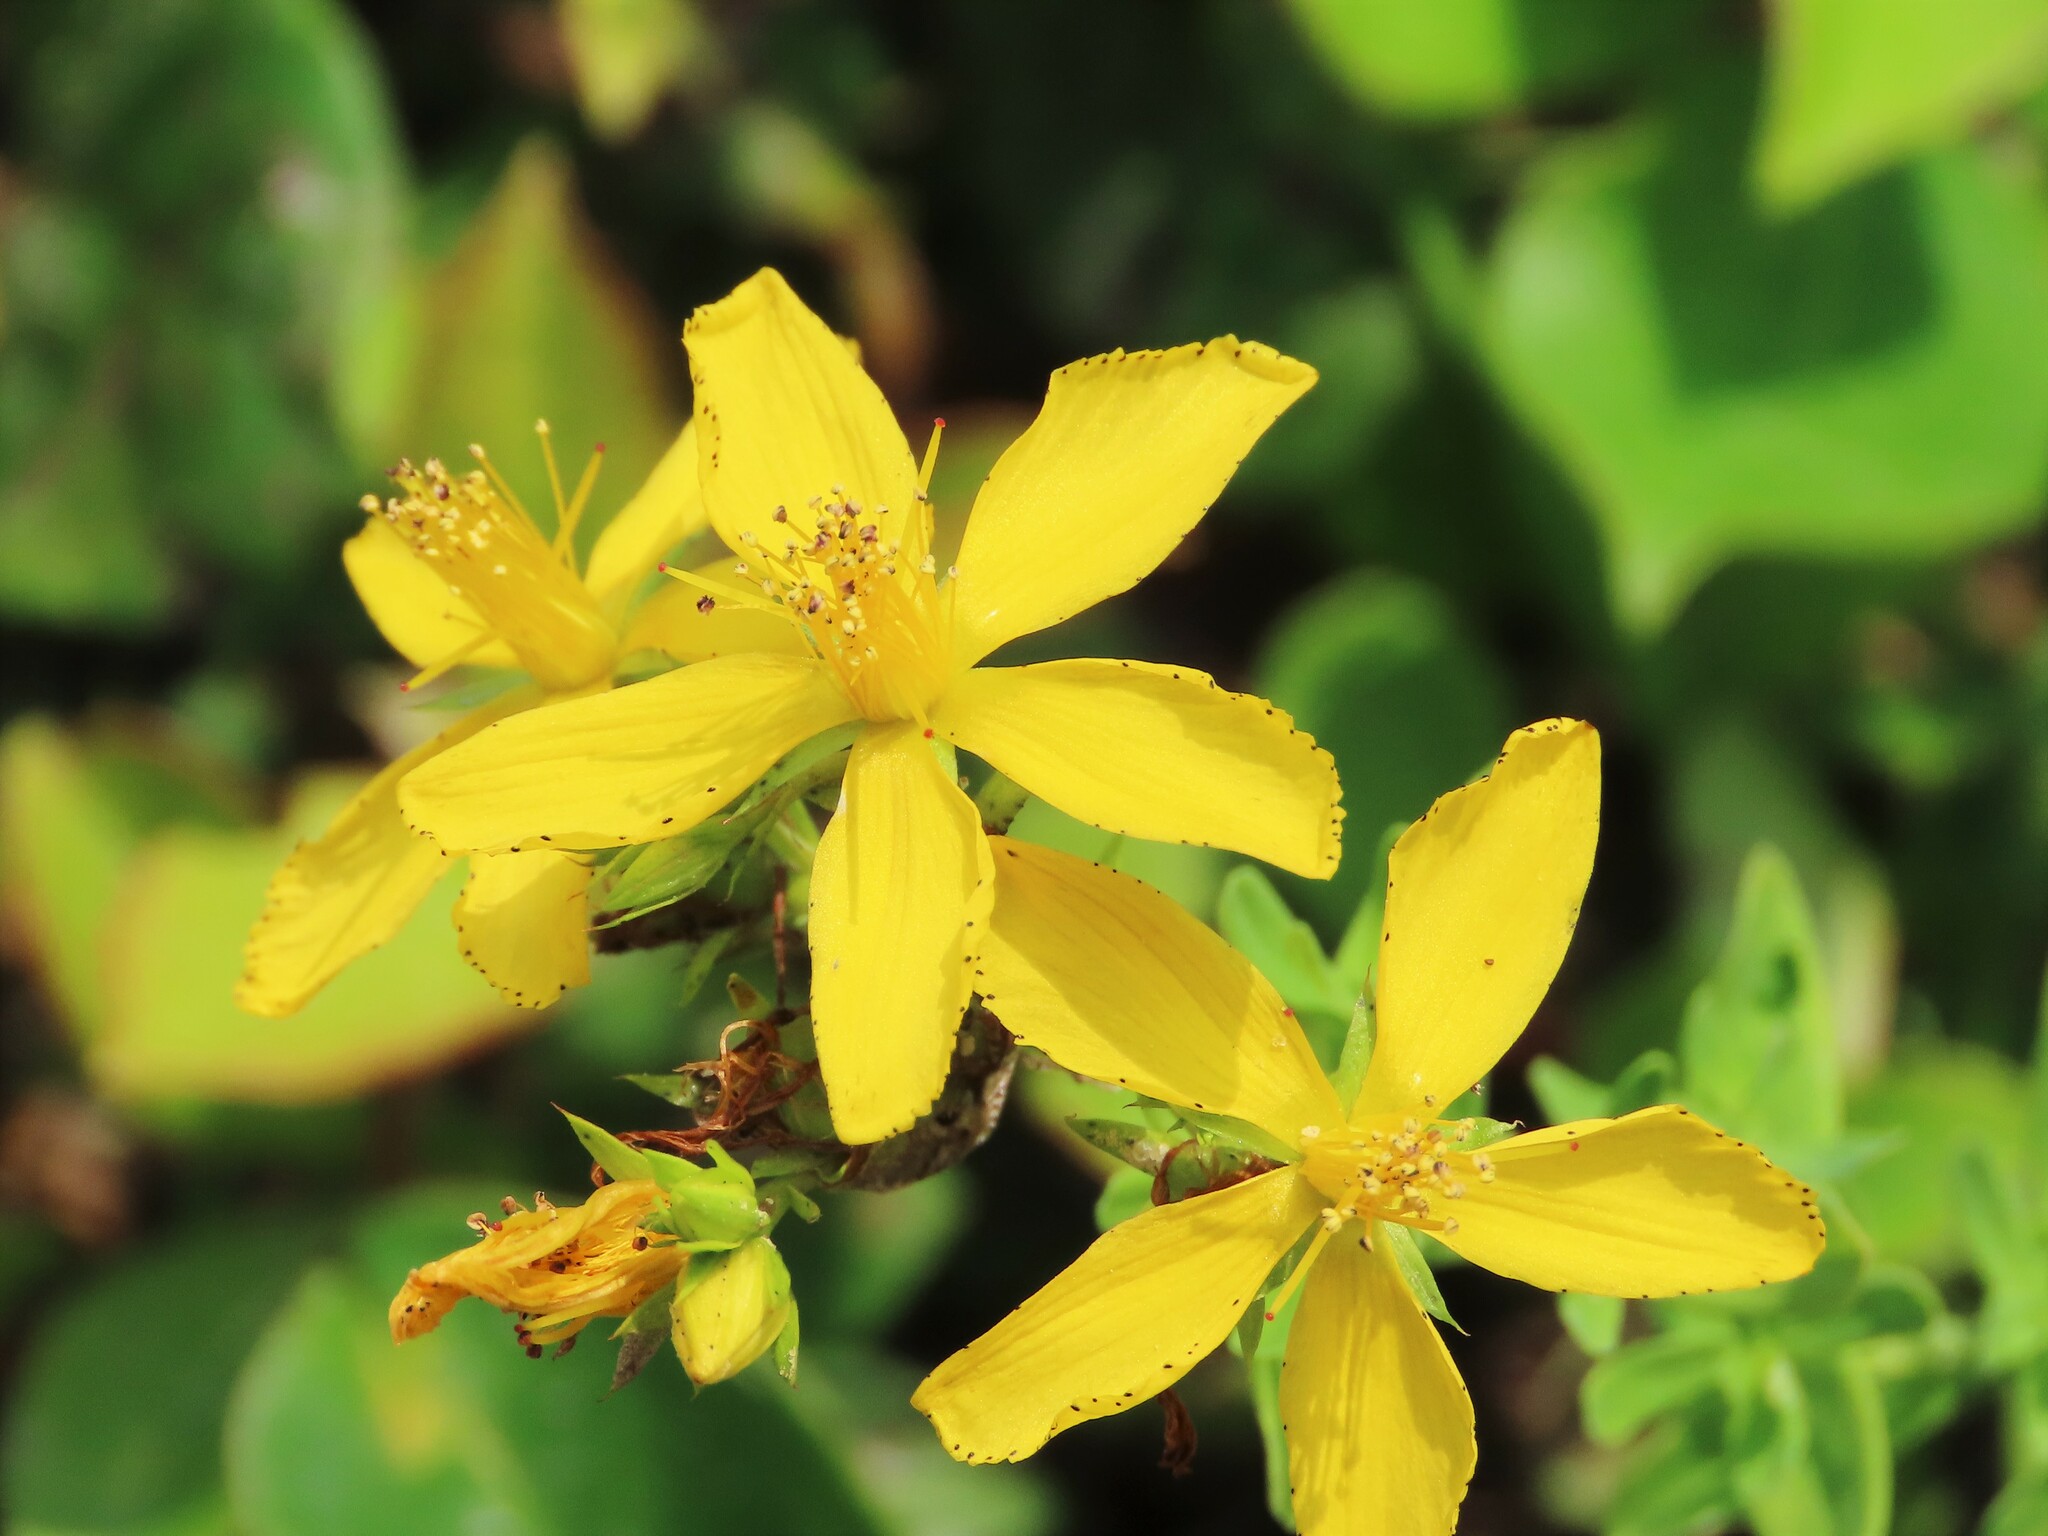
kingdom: Plantae
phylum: Tracheophyta
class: Magnoliopsida
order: Malpighiales
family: Hypericaceae
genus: Hypericum
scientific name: Hypericum perforatum
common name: Common st. johnswort
